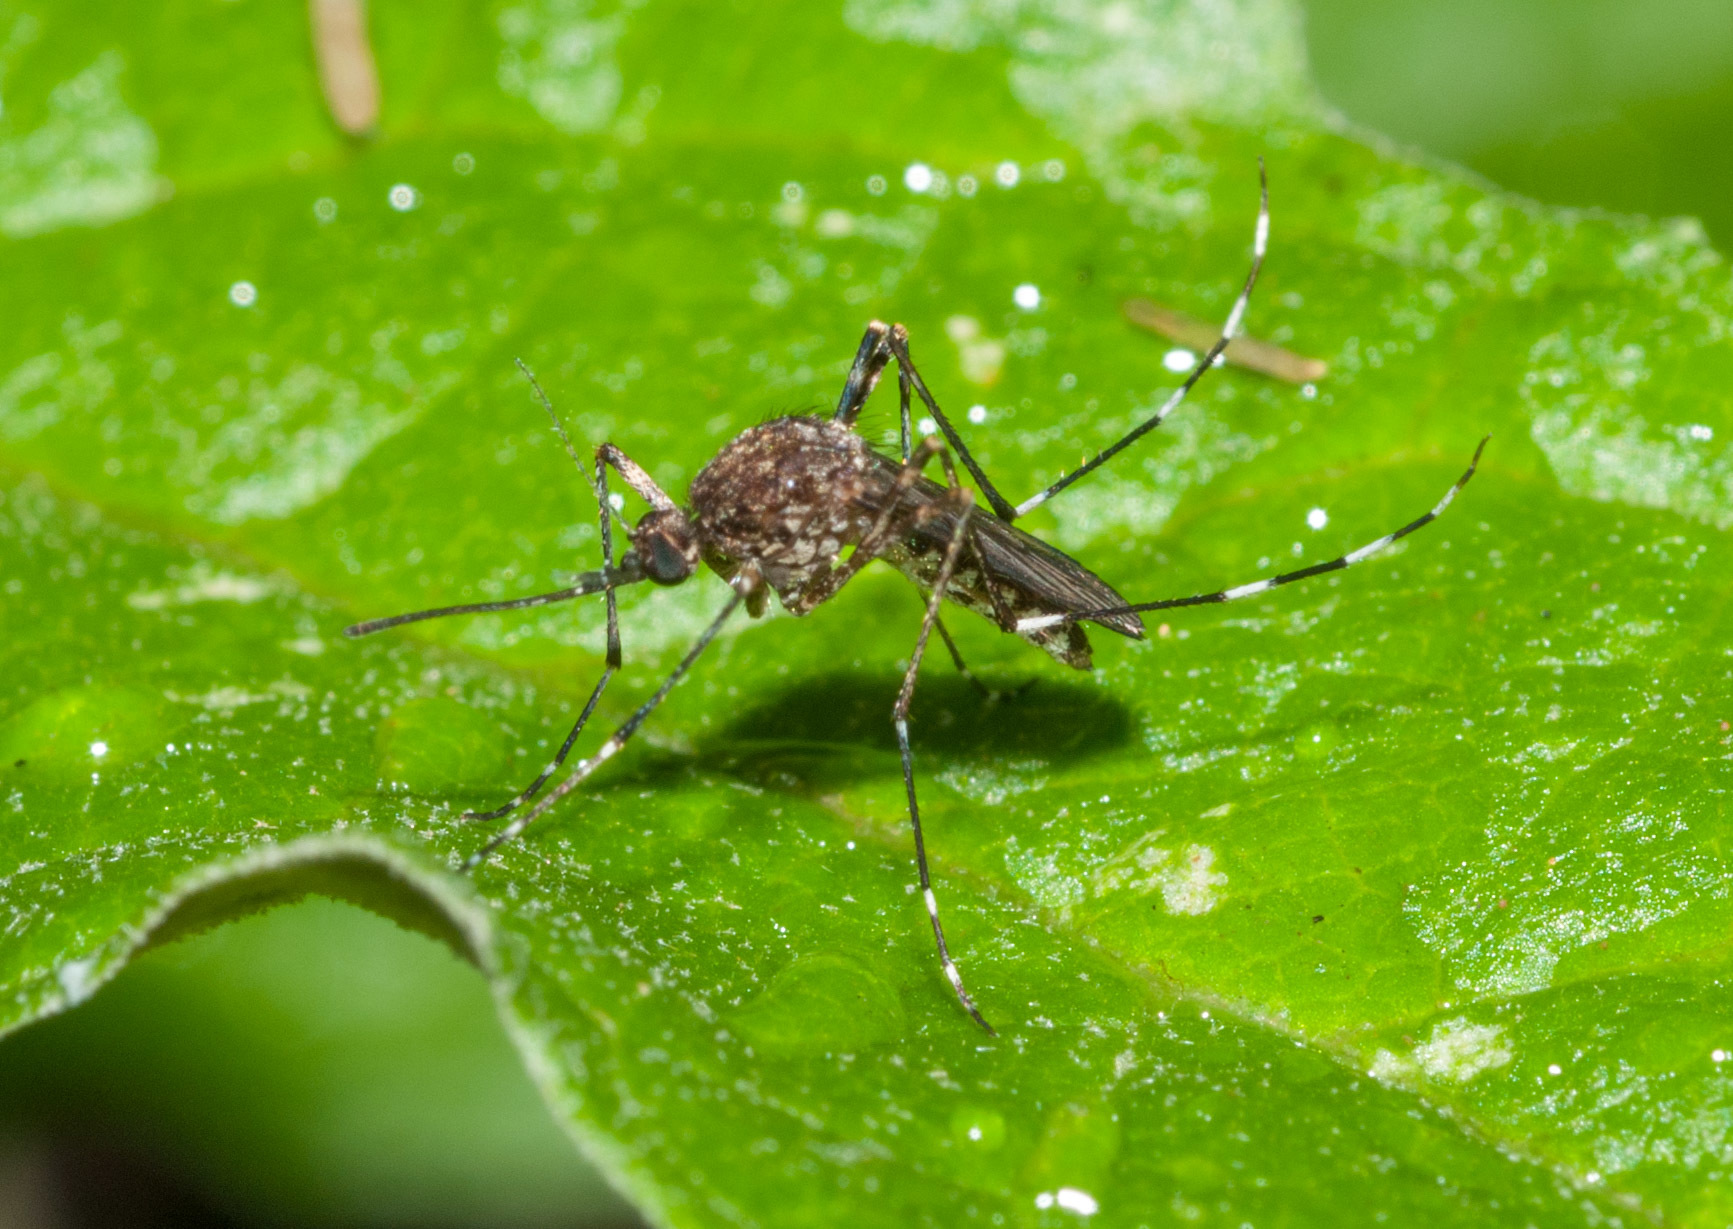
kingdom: Animalia
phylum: Arthropoda
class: Insecta
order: Diptera
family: Culicidae
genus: Aedes
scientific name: Aedes alboannulatus
